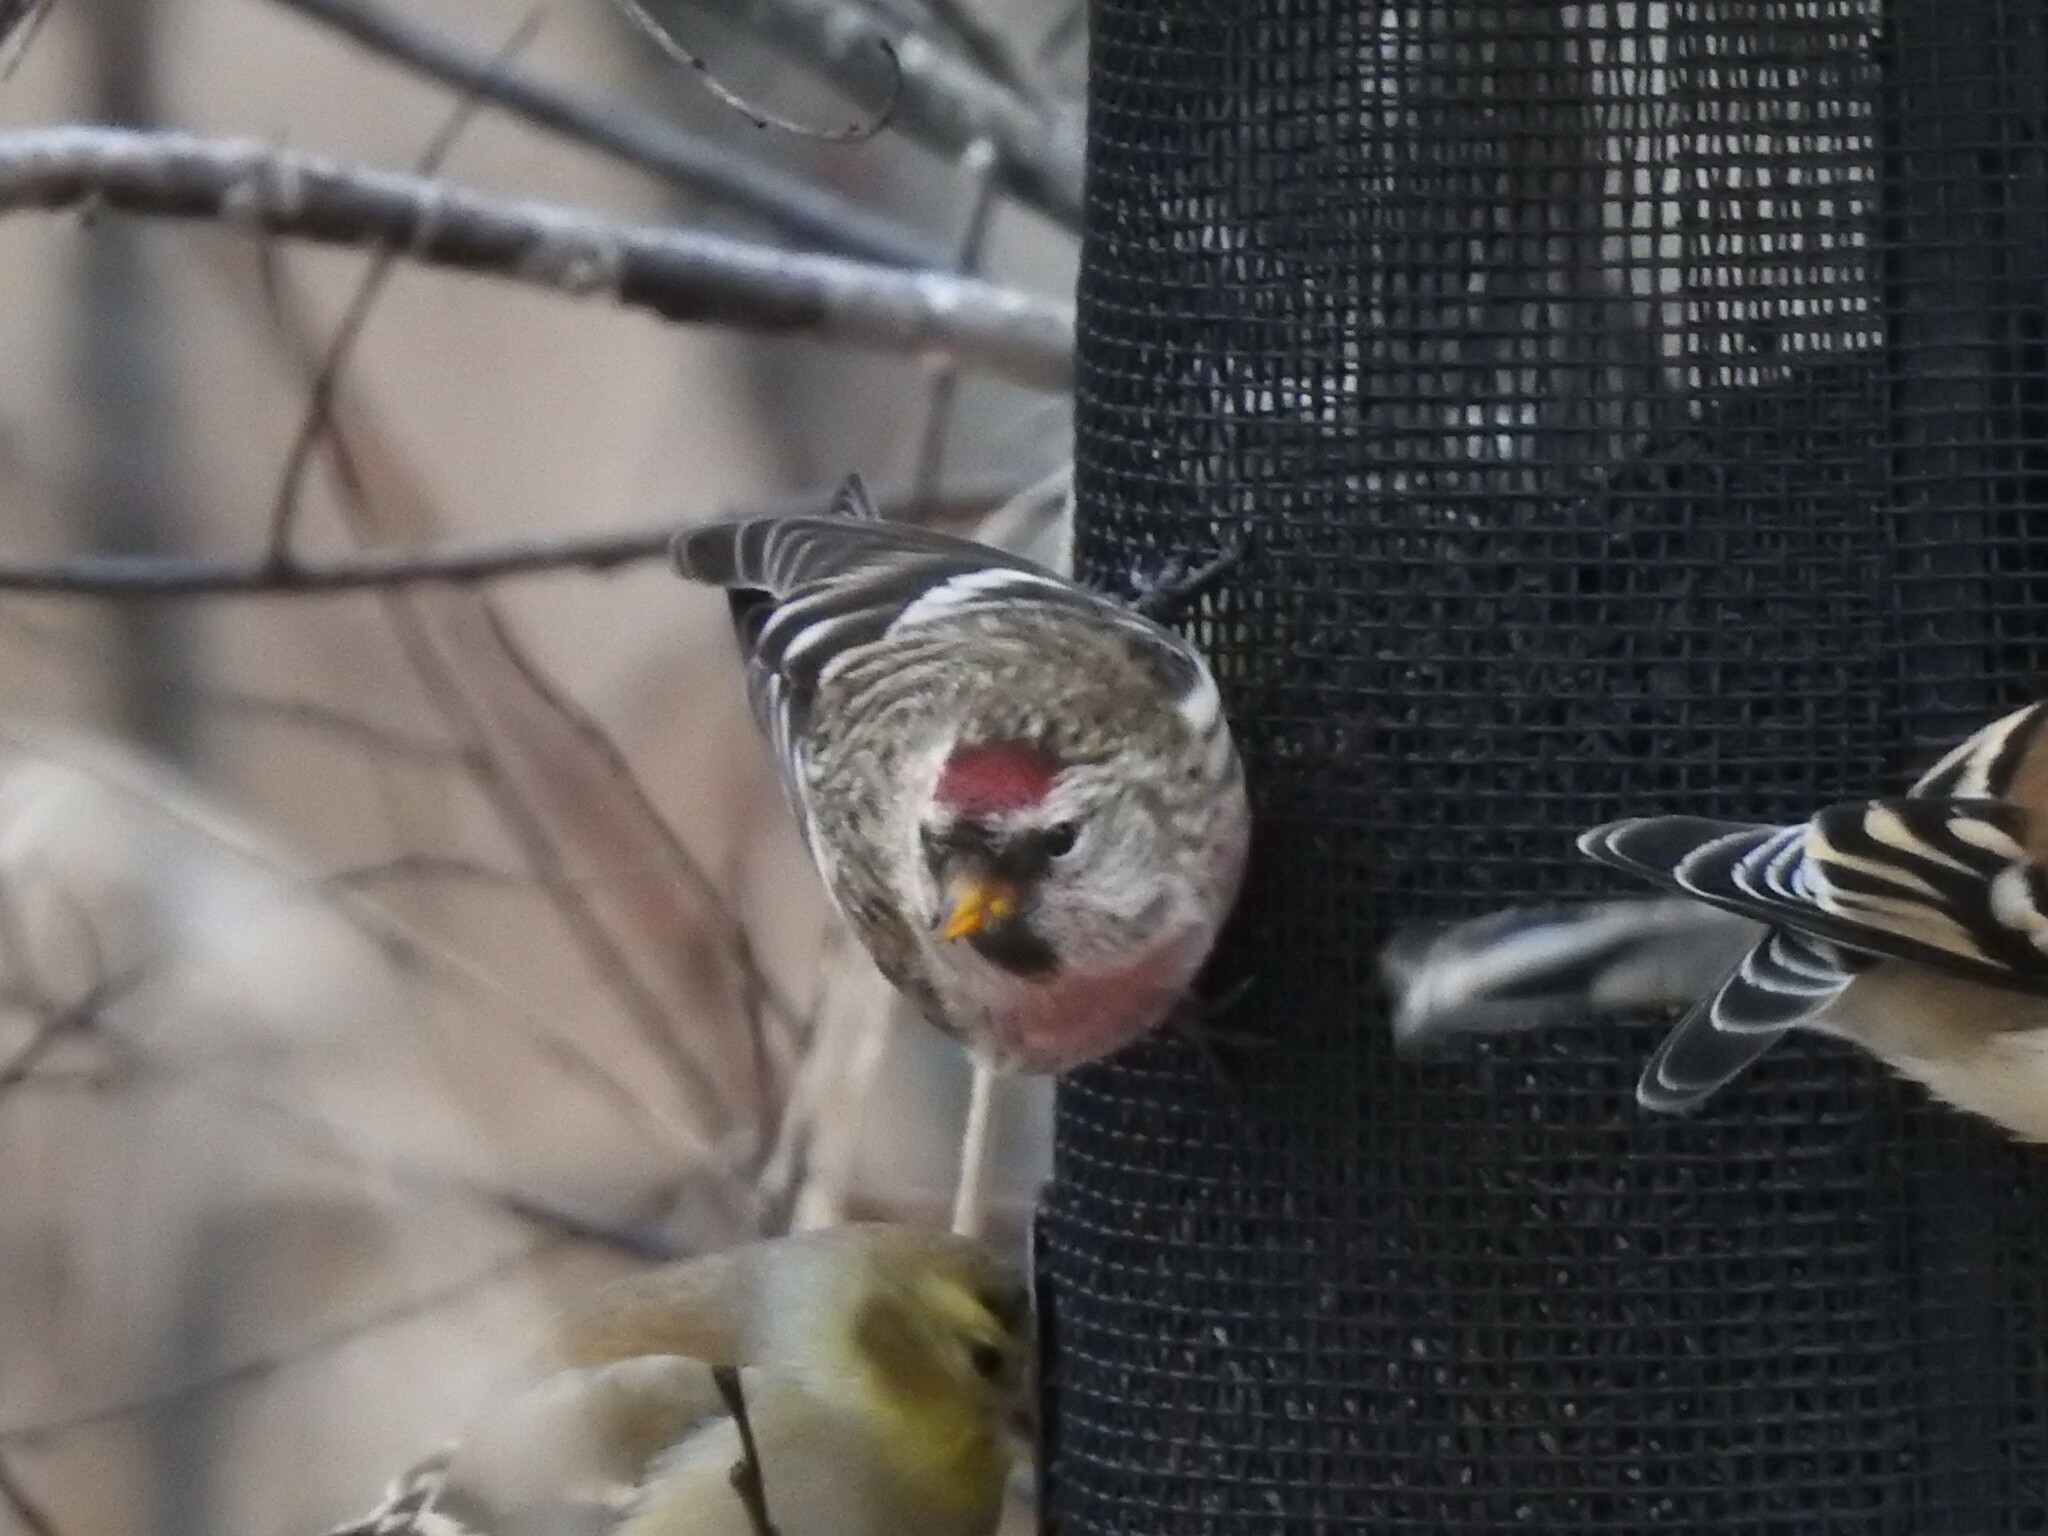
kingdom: Animalia
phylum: Chordata
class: Aves
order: Passeriformes
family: Fringillidae
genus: Acanthis
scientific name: Acanthis flammea
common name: Common redpoll
